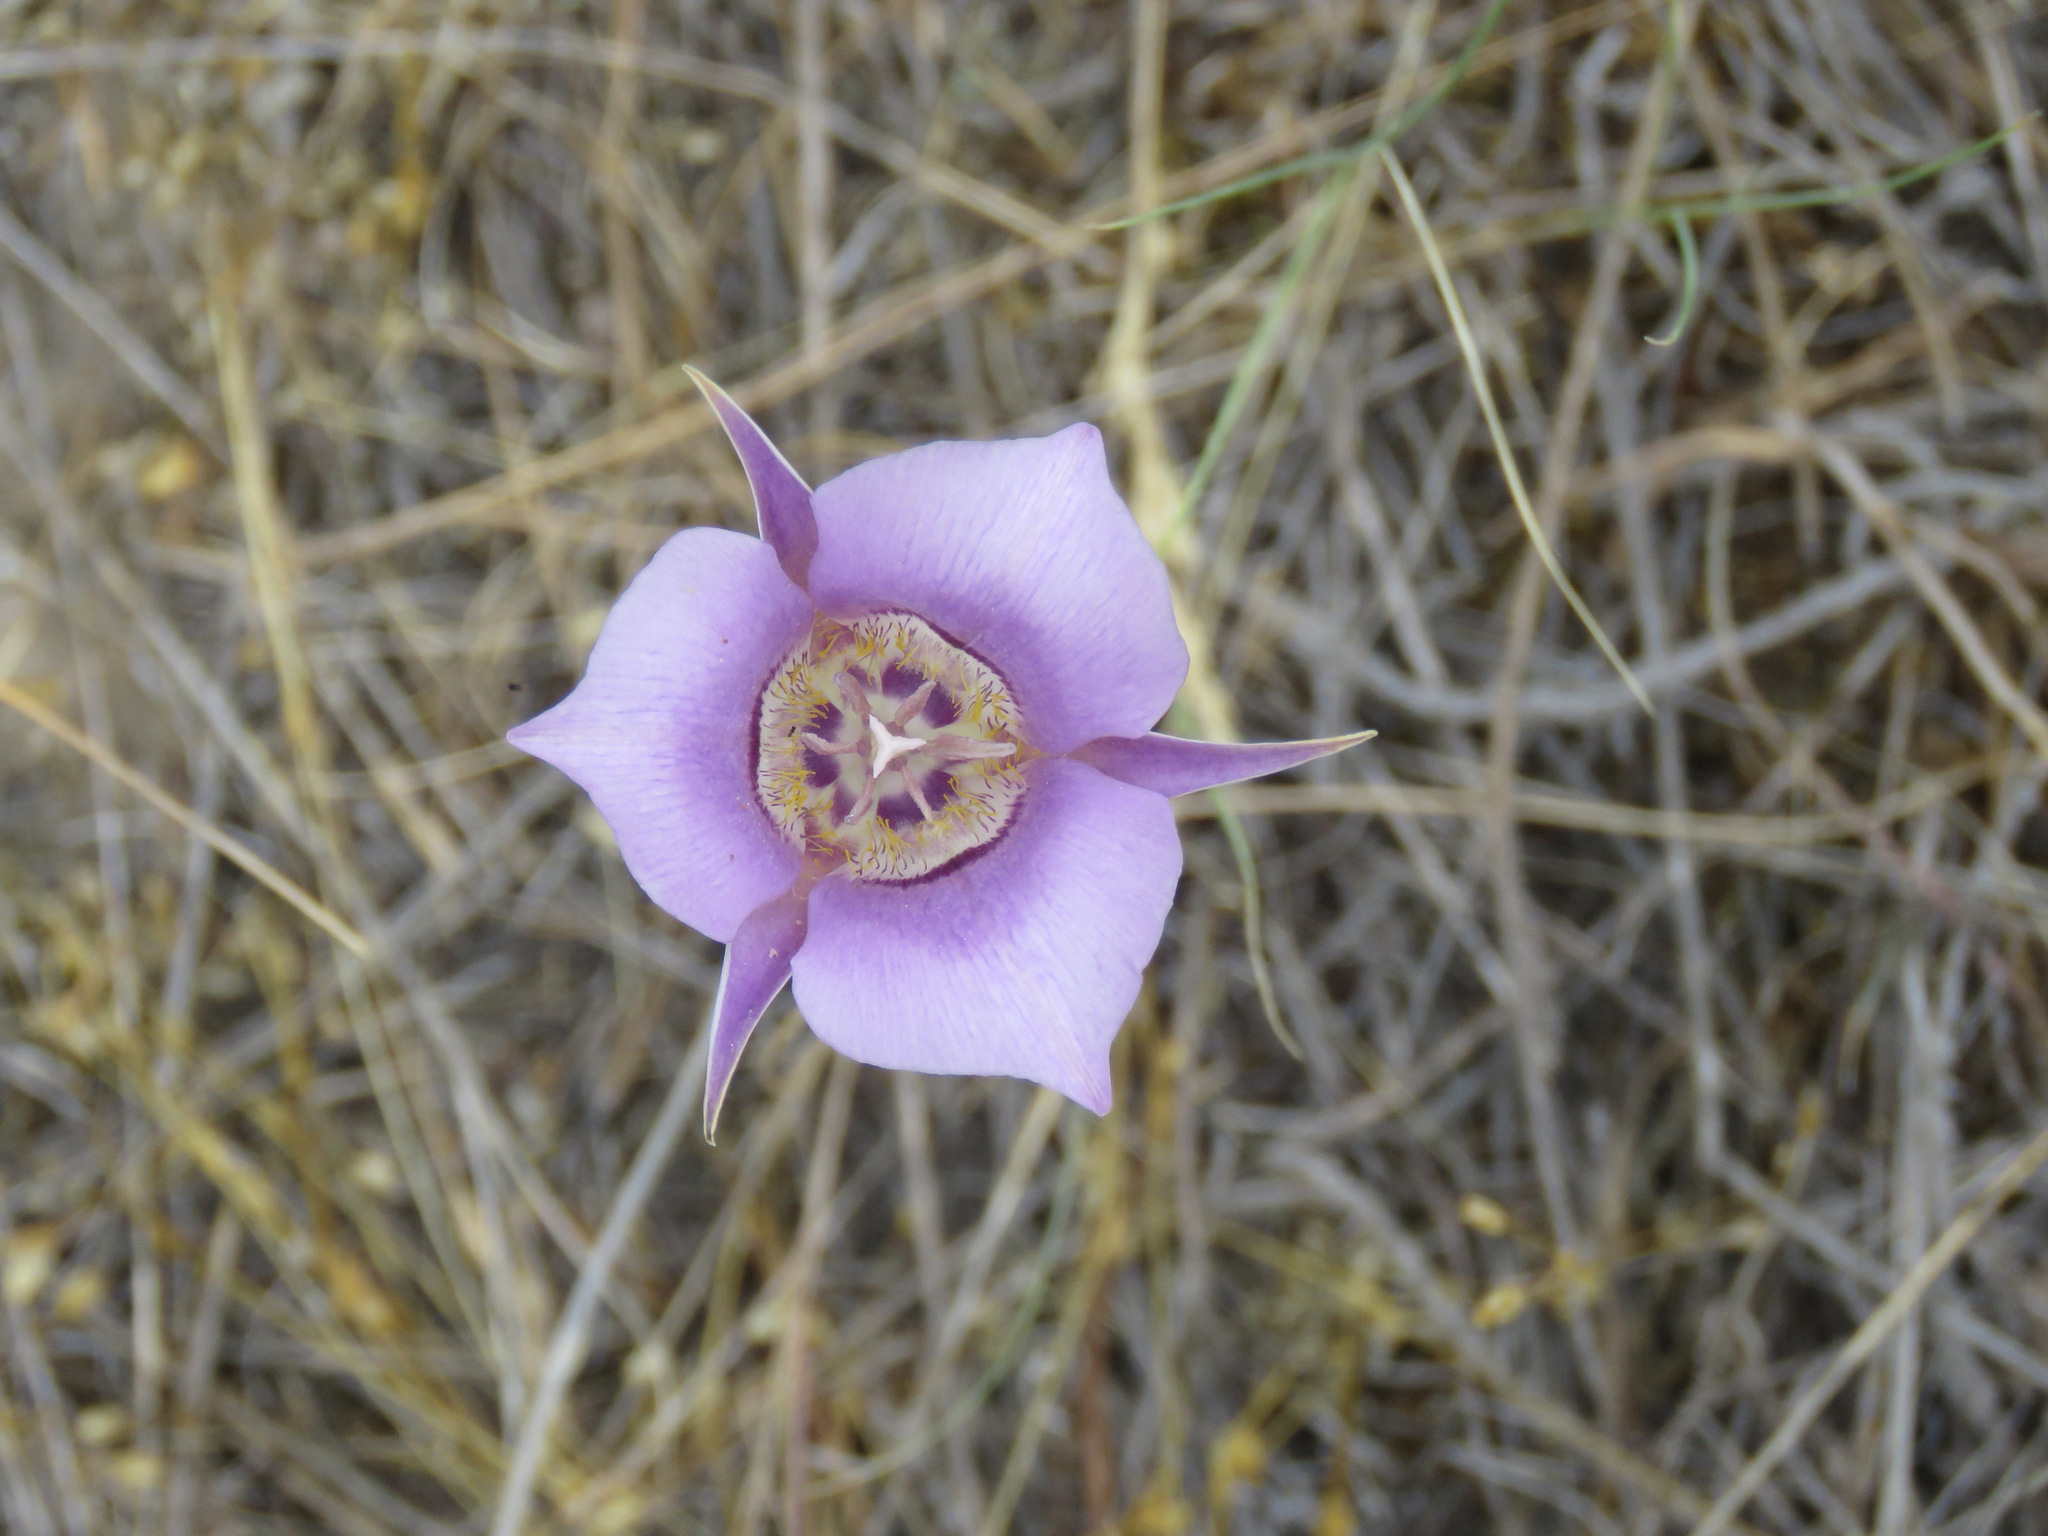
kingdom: Plantae
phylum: Tracheophyta
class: Liliopsida
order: Liliales
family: Liliaceae
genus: Calochortus
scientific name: Calochortus macrocarpus
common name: Green-band mariposa lily
